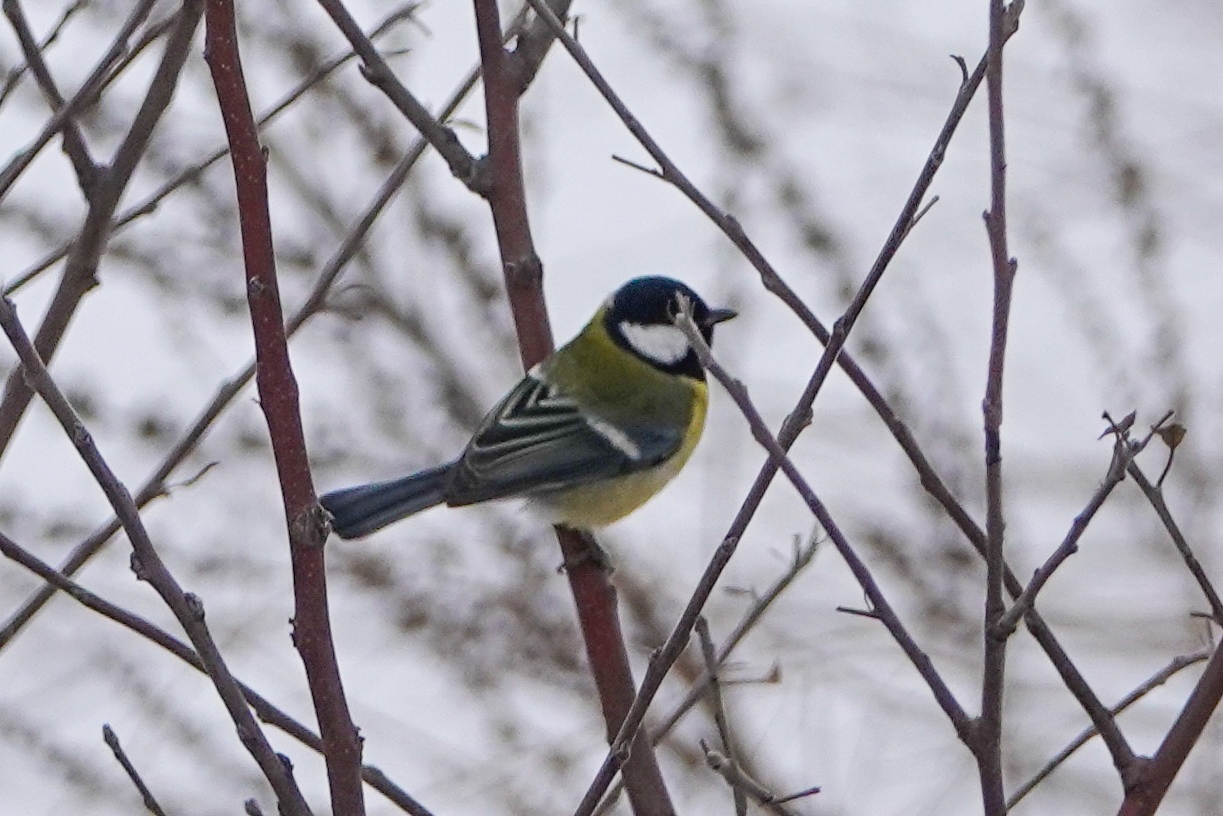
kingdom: Animalia
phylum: Chordata
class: Aves
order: Passeriformes
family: Paridae
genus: Parus
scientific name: Parus major
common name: Great tit
